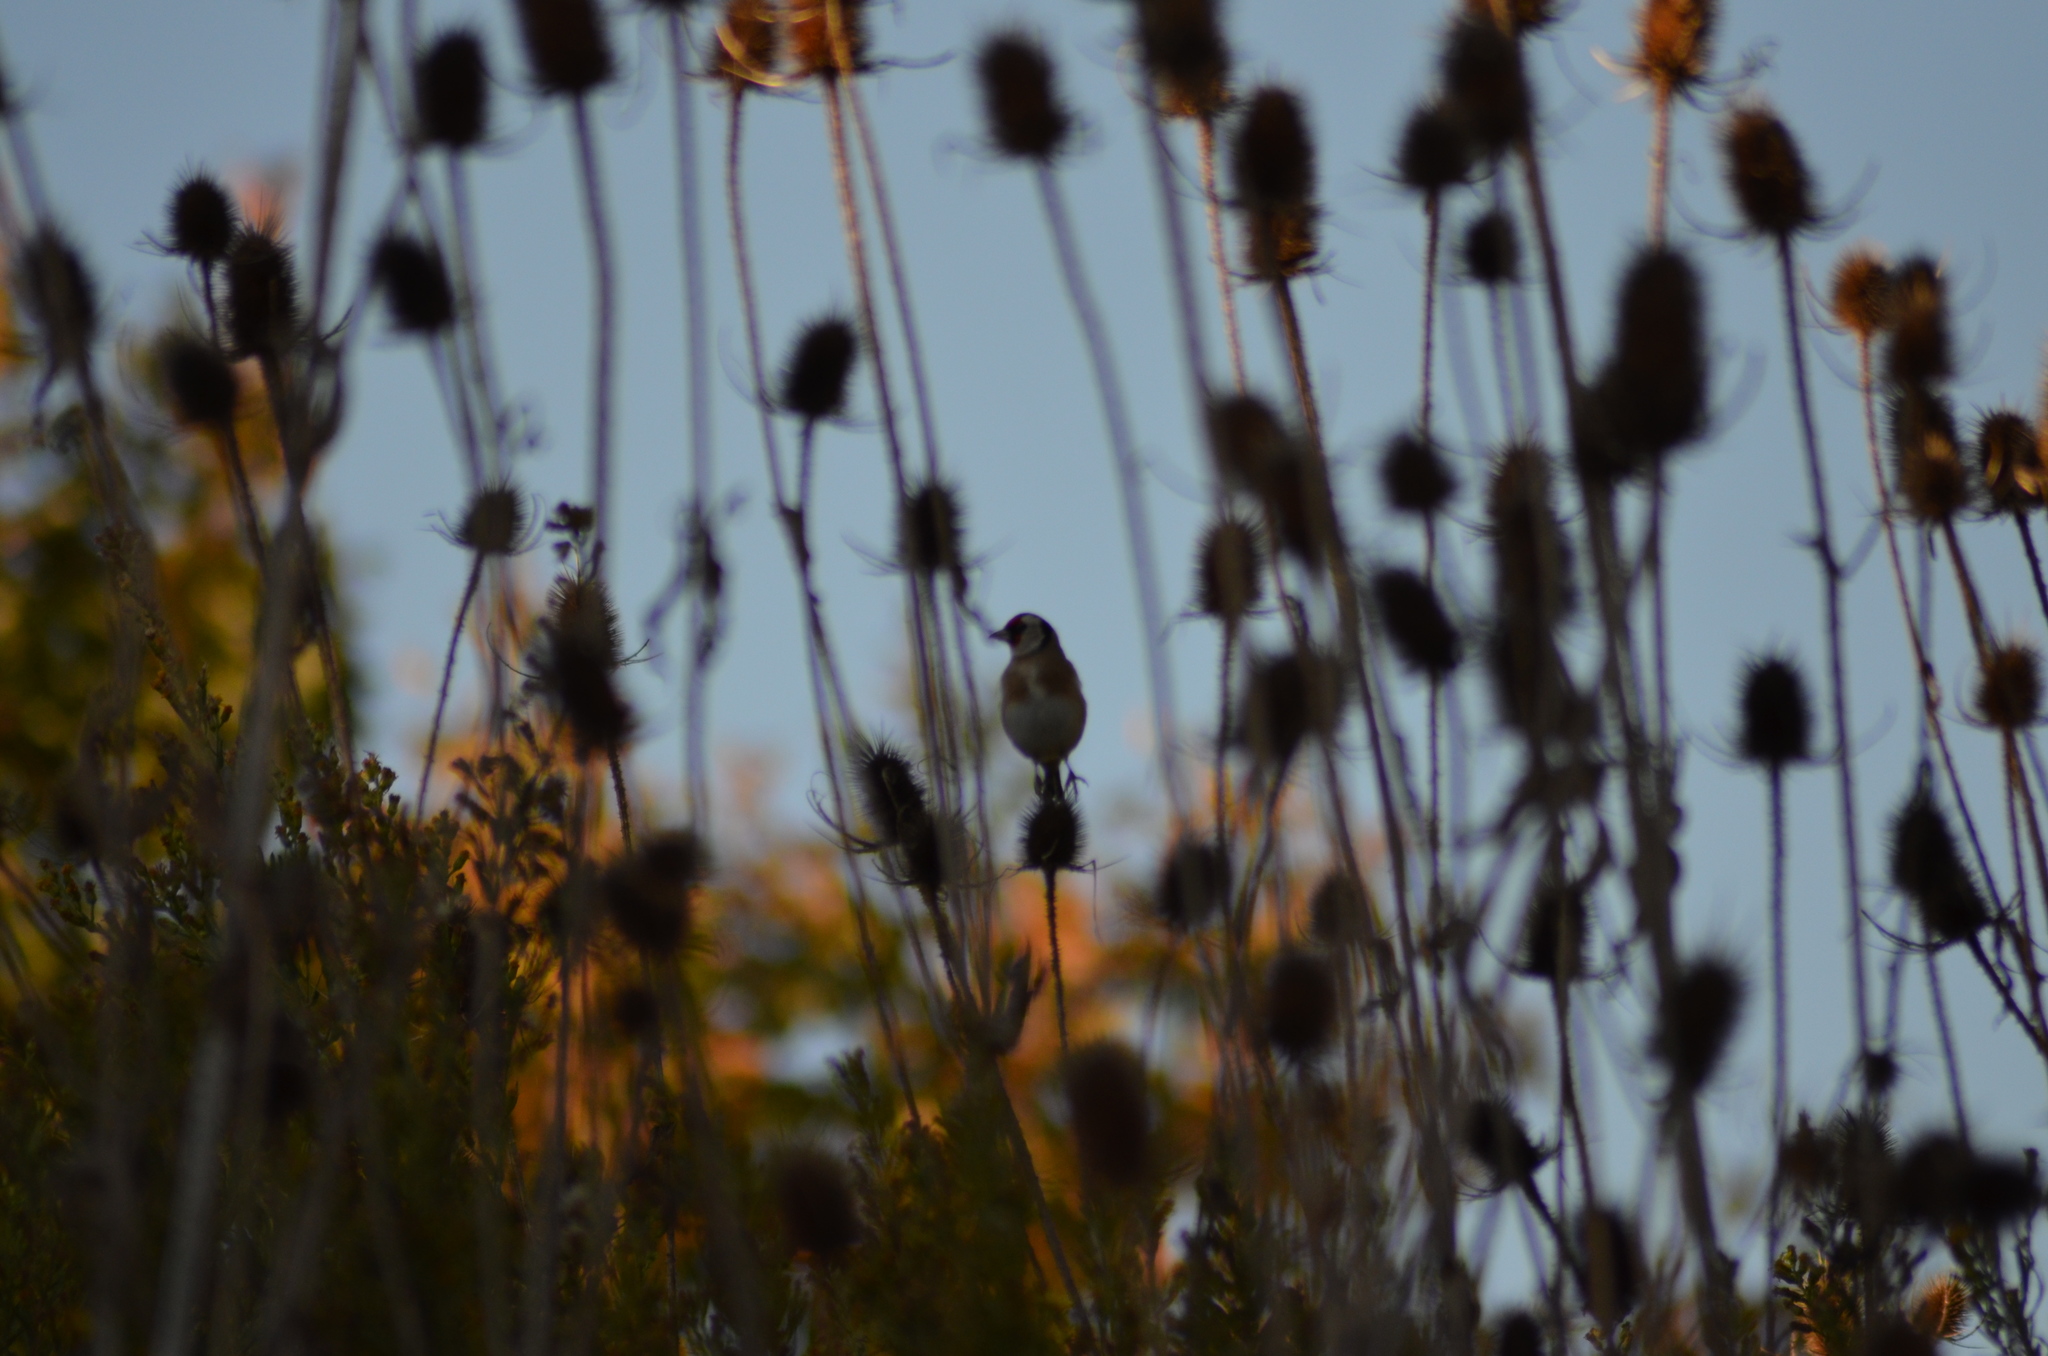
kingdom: Animalia
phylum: Chordata
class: Aves
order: Passeriformes
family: Fringillidae
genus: Carduelis
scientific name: Carduelis carduelis
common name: European goldfinch
